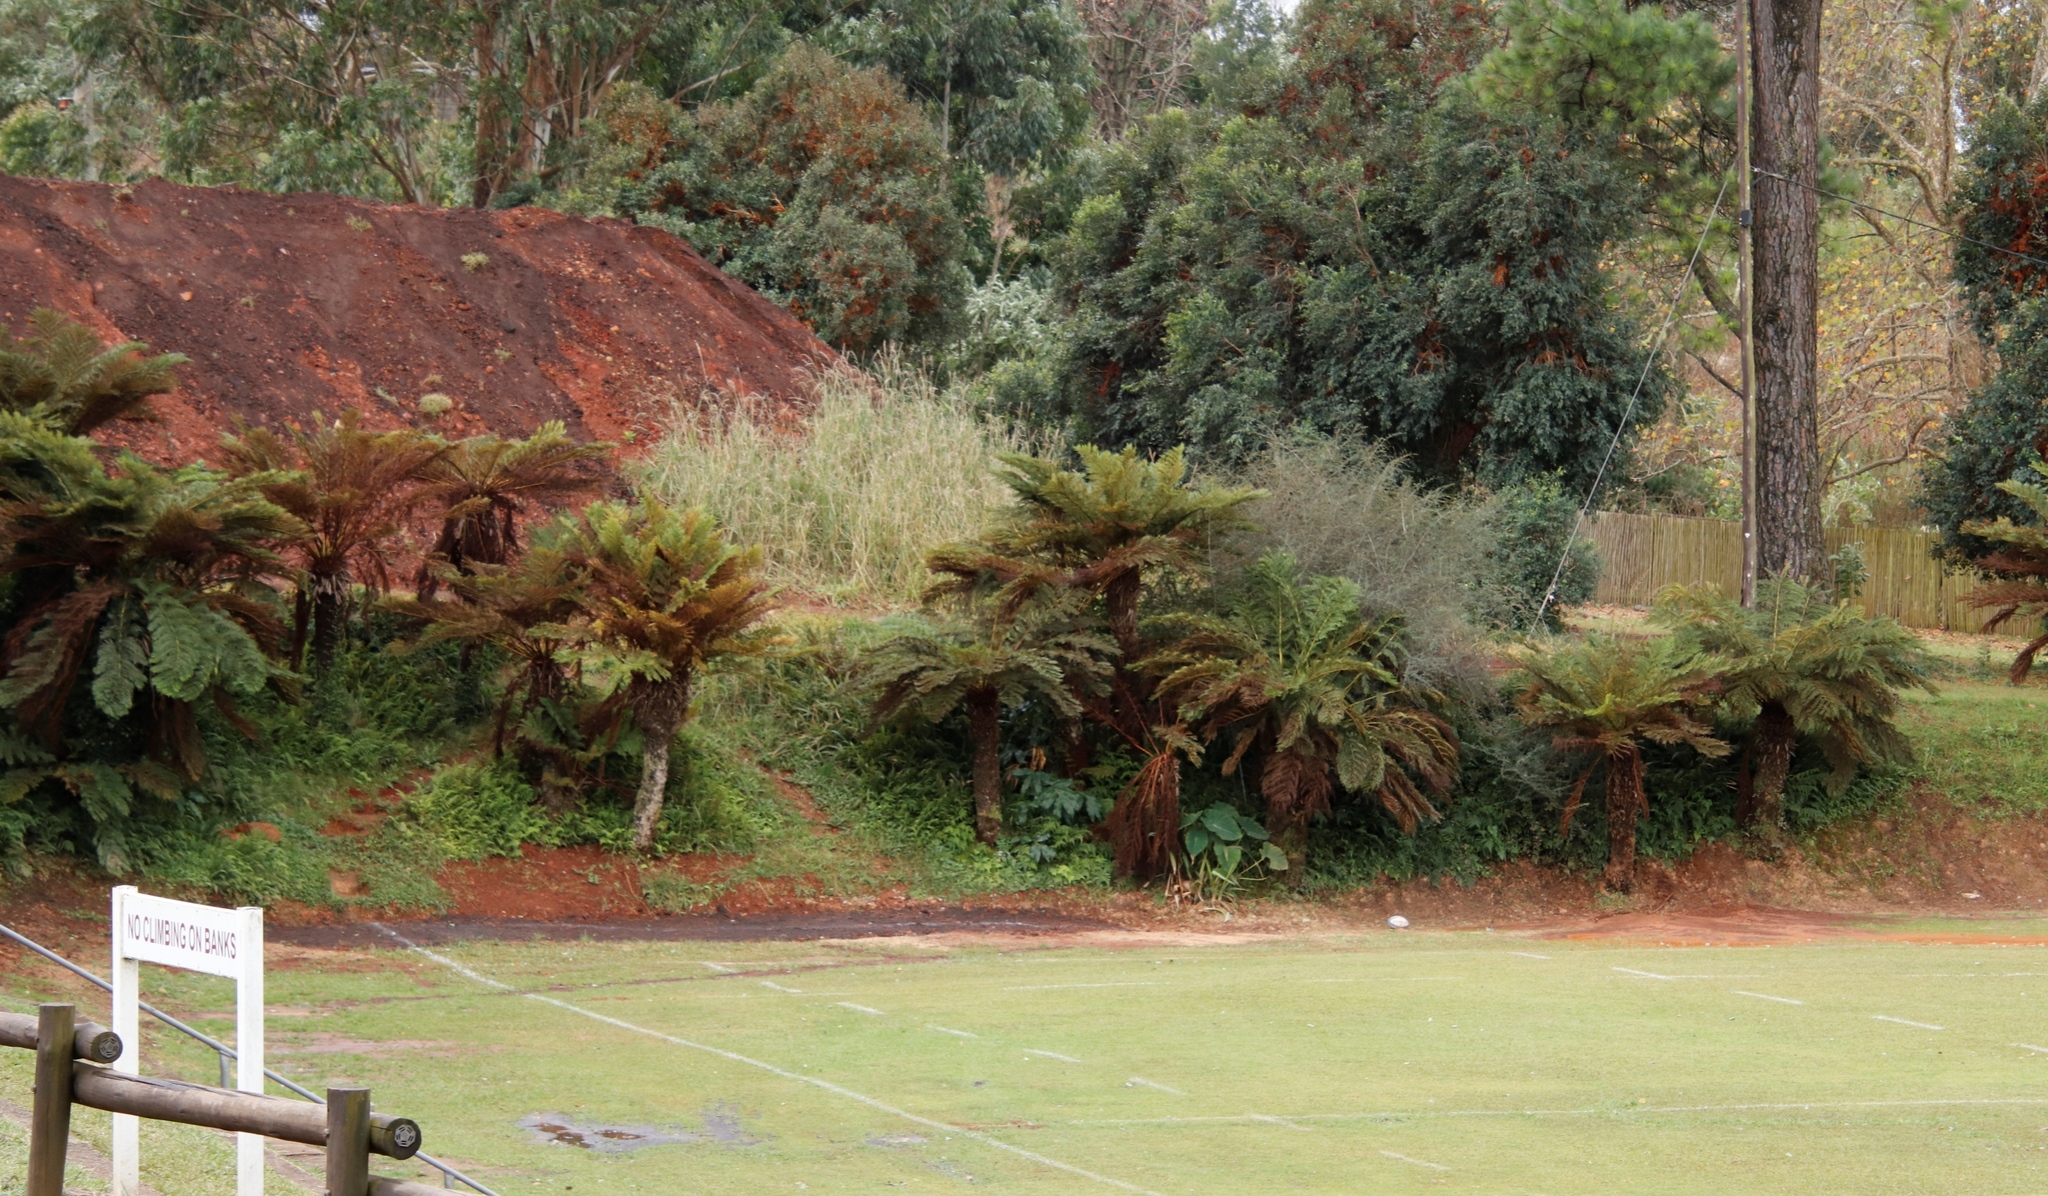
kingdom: Plantae
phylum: Tracheophyta
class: Polypodiopsida
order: Cyatheales
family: Cyatheaceae
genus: Alsophila
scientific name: Alsophila dregei
